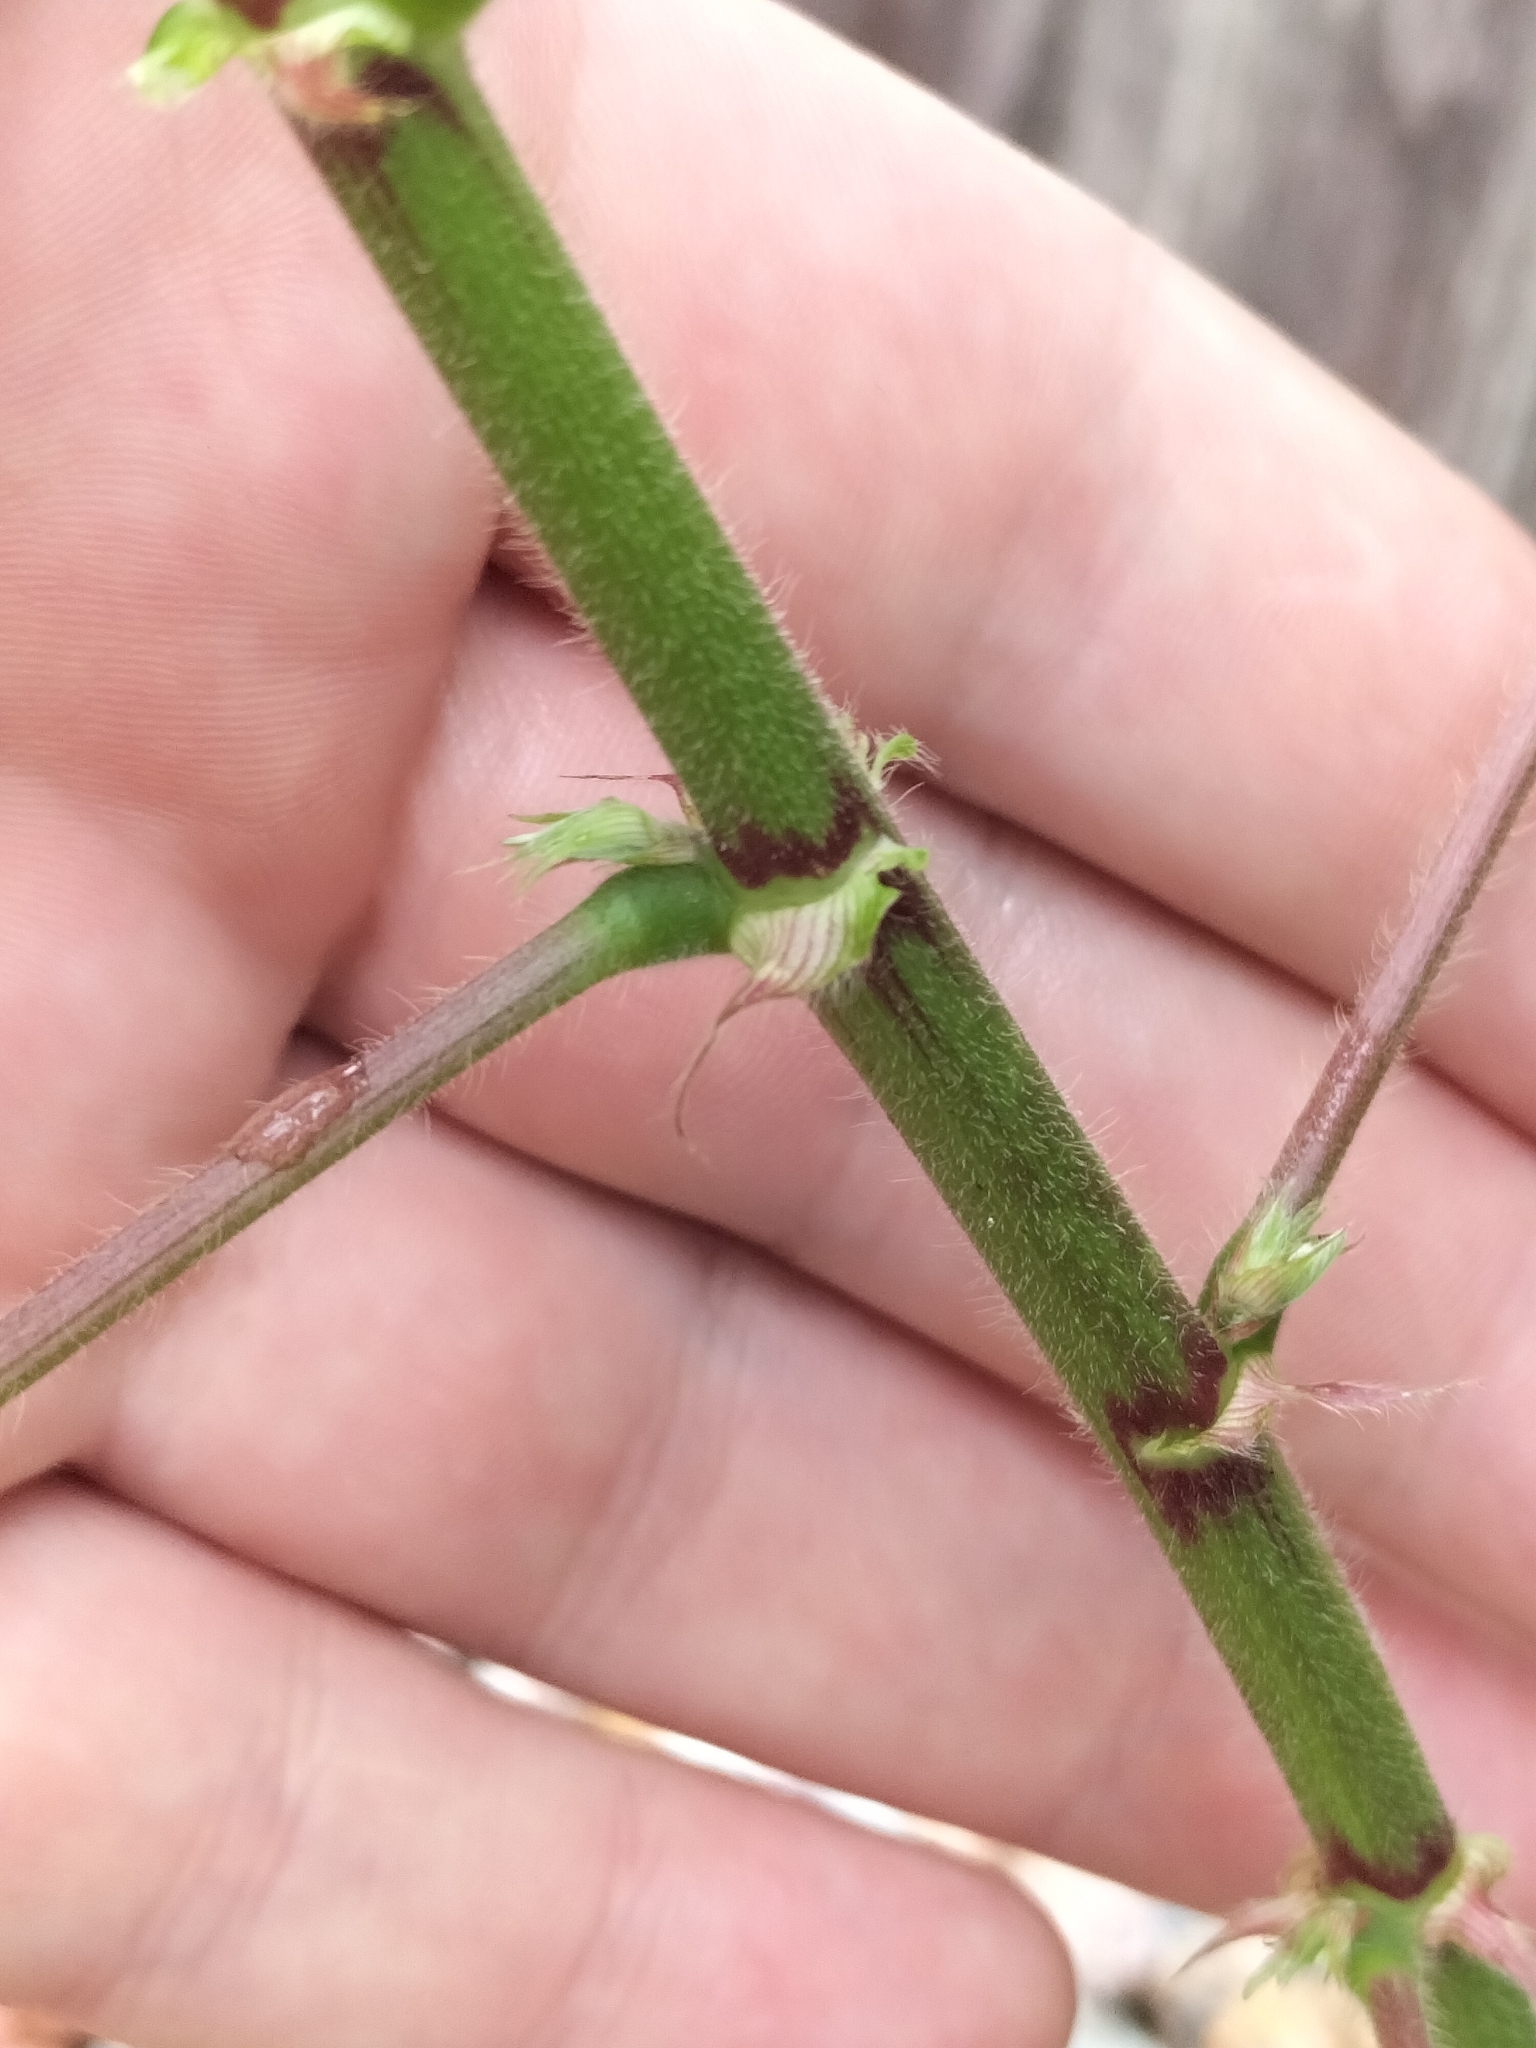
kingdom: Plantae
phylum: Tracheophyta
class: Magnoliopsida
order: Fabales
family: Fabaceae
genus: Desmodium
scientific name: Desmodium tortuosum
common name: Dixie ticktrefoil
